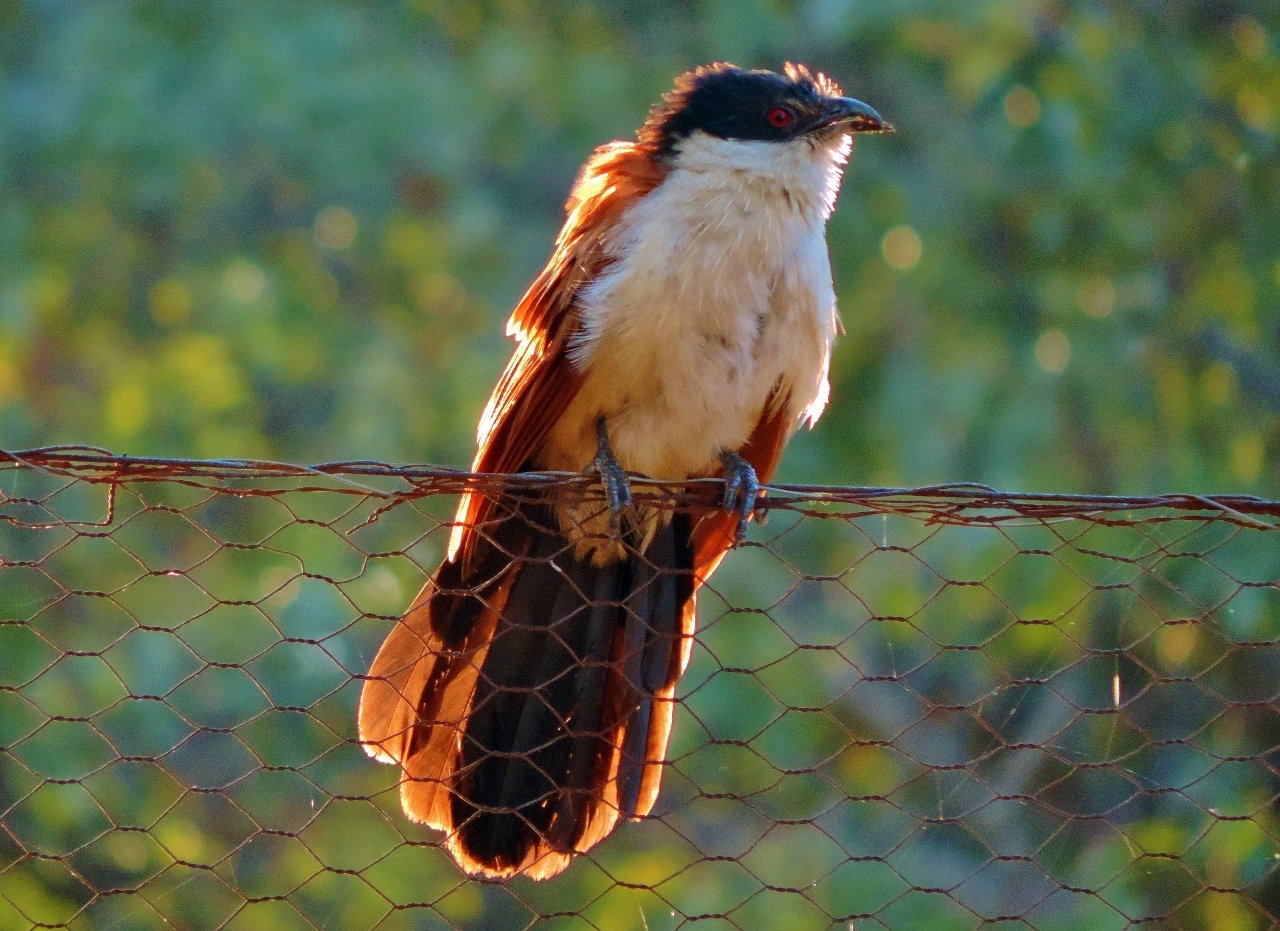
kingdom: Animalia
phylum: Chordata
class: Aves
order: Cuculiformes
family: Cuculidae
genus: Centropus
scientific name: Centropus senegalensis
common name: Senegal coucal
